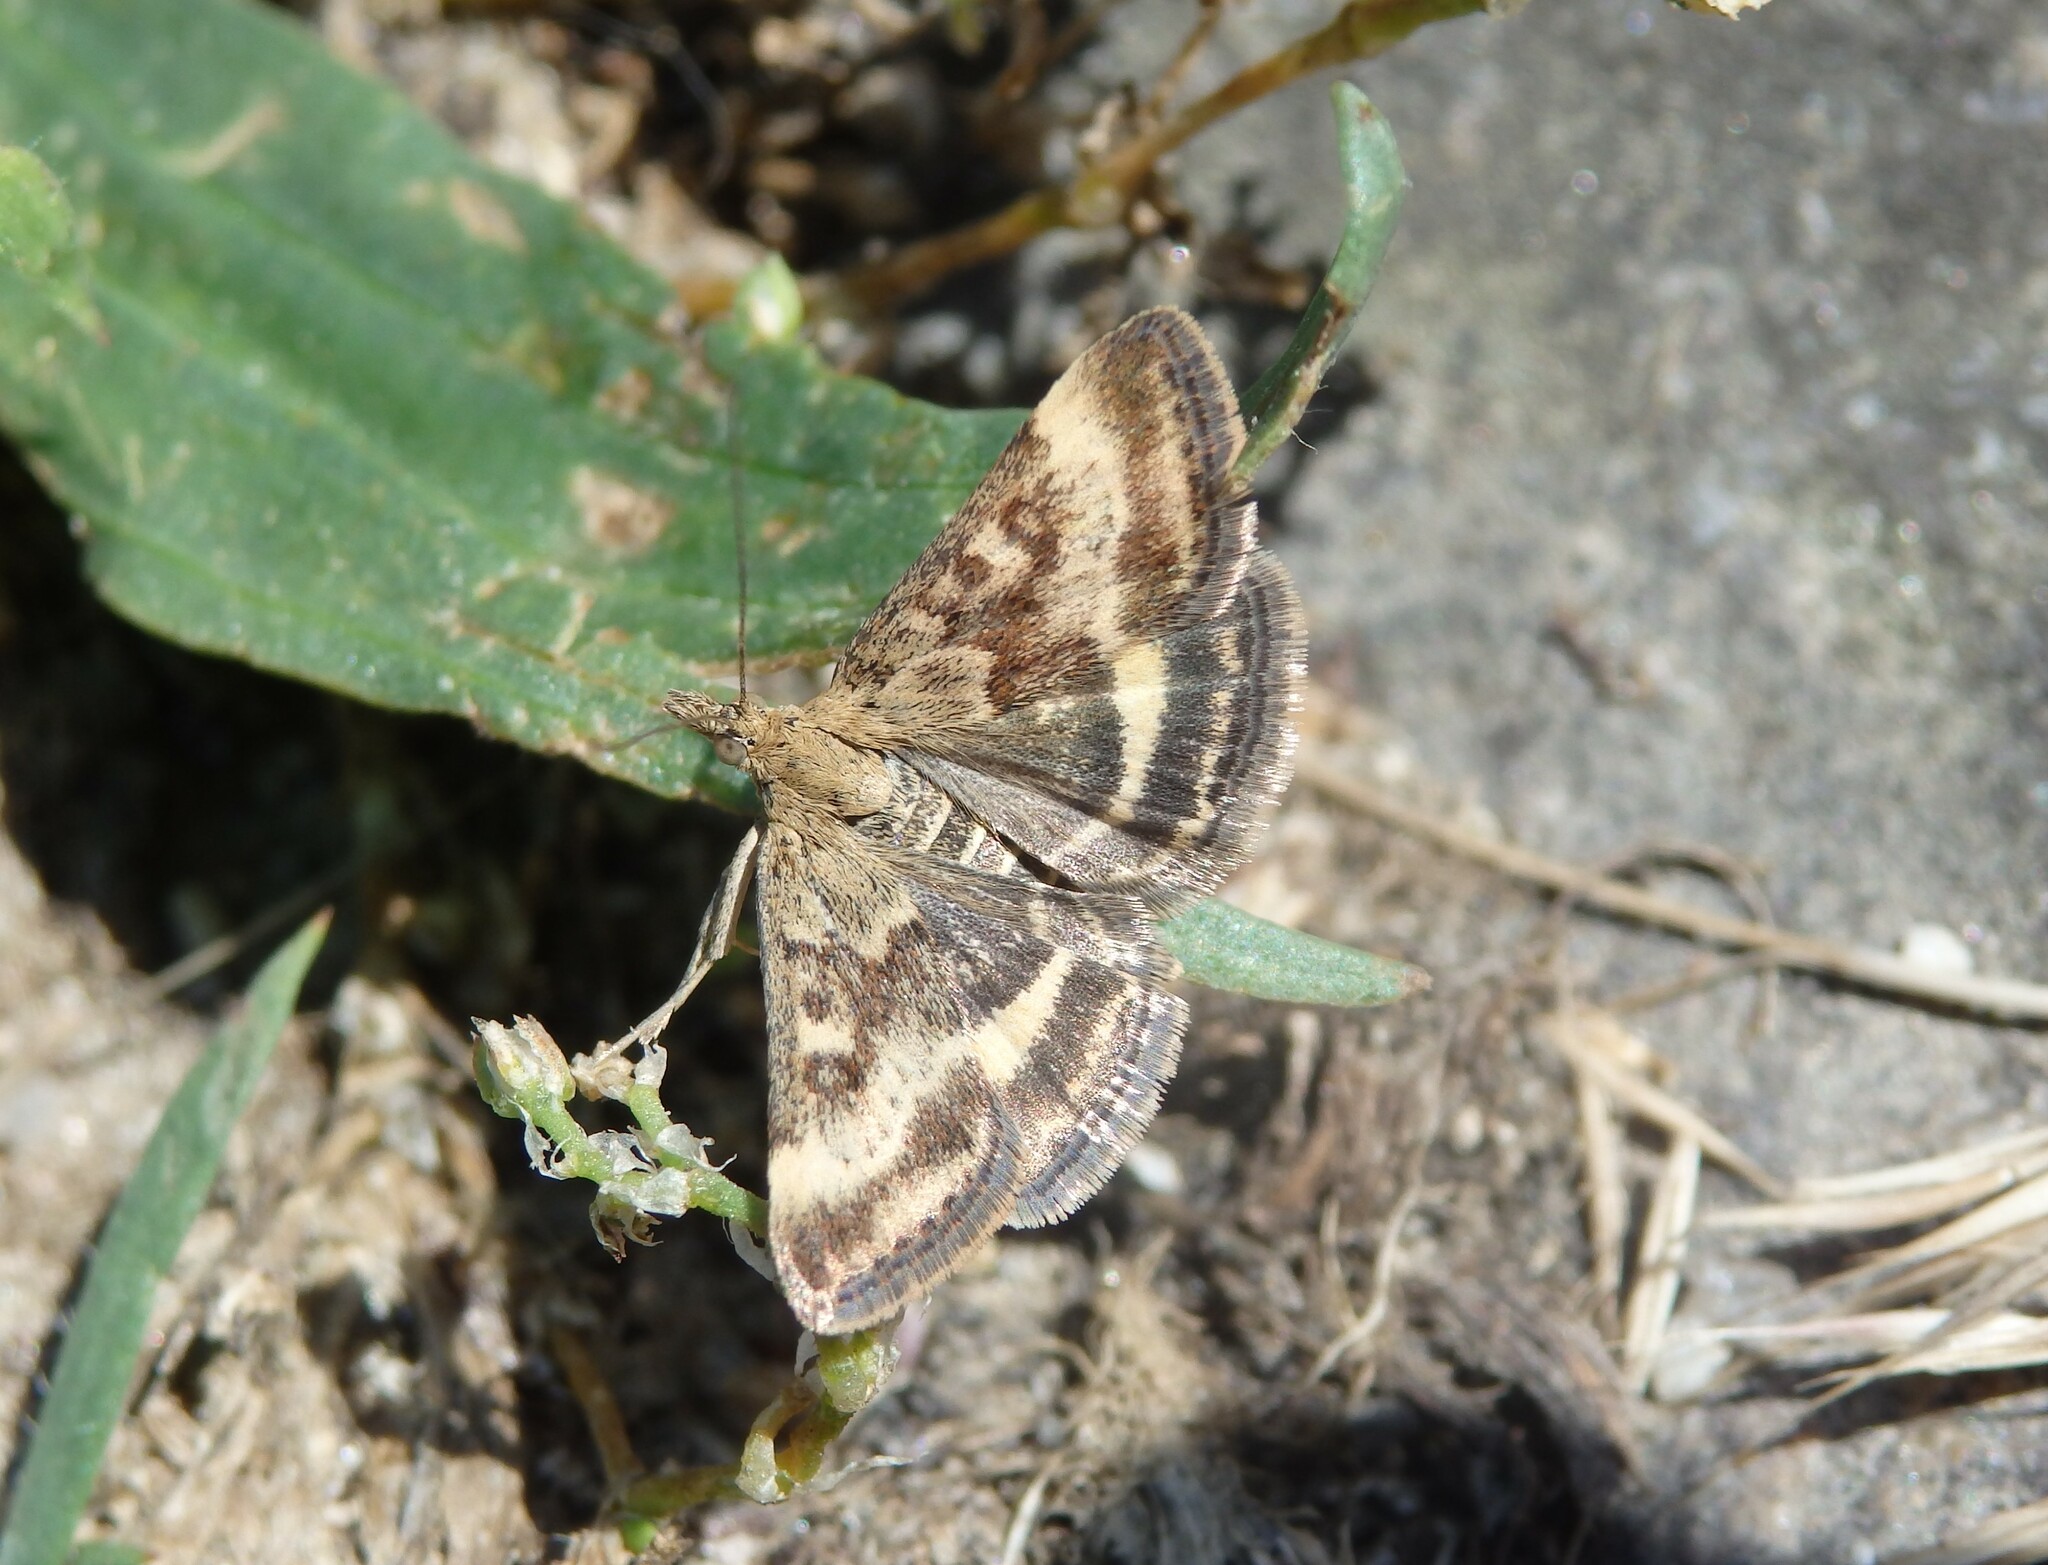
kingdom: Animalia
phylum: Arthropoda
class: Insecta
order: Lepidoptera
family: Crambidae
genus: Pyrausta
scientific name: Pyrausta despicata
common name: Straw-barred pearl
